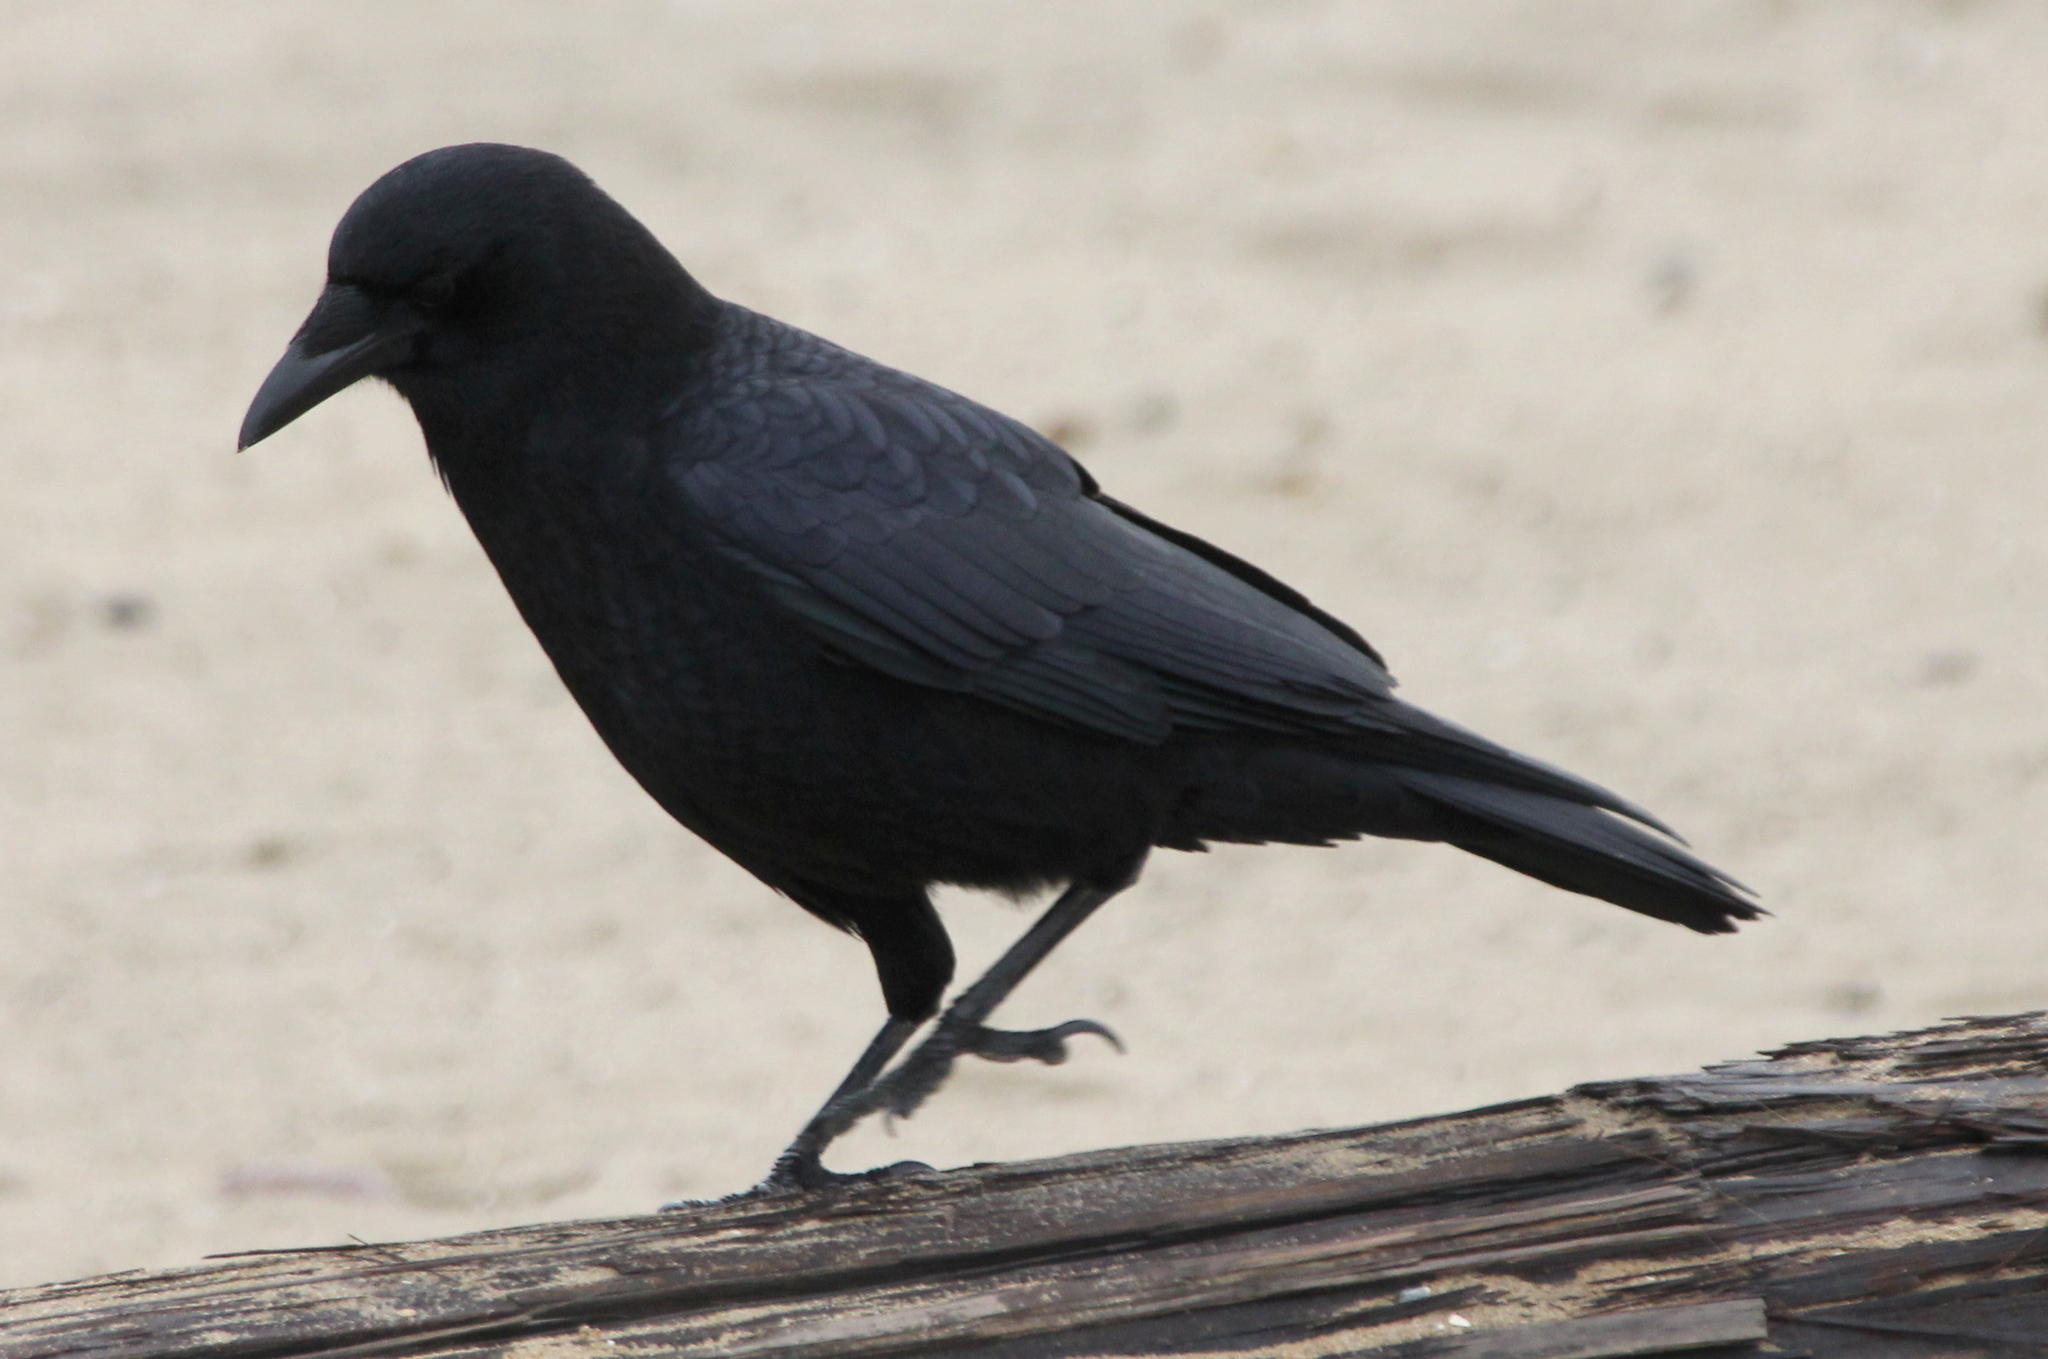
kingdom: Animalia
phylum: Chordata
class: Aves
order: Passeriformes
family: Corvidae
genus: Corvus
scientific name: Corvus brachyrhynchos
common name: American crow
